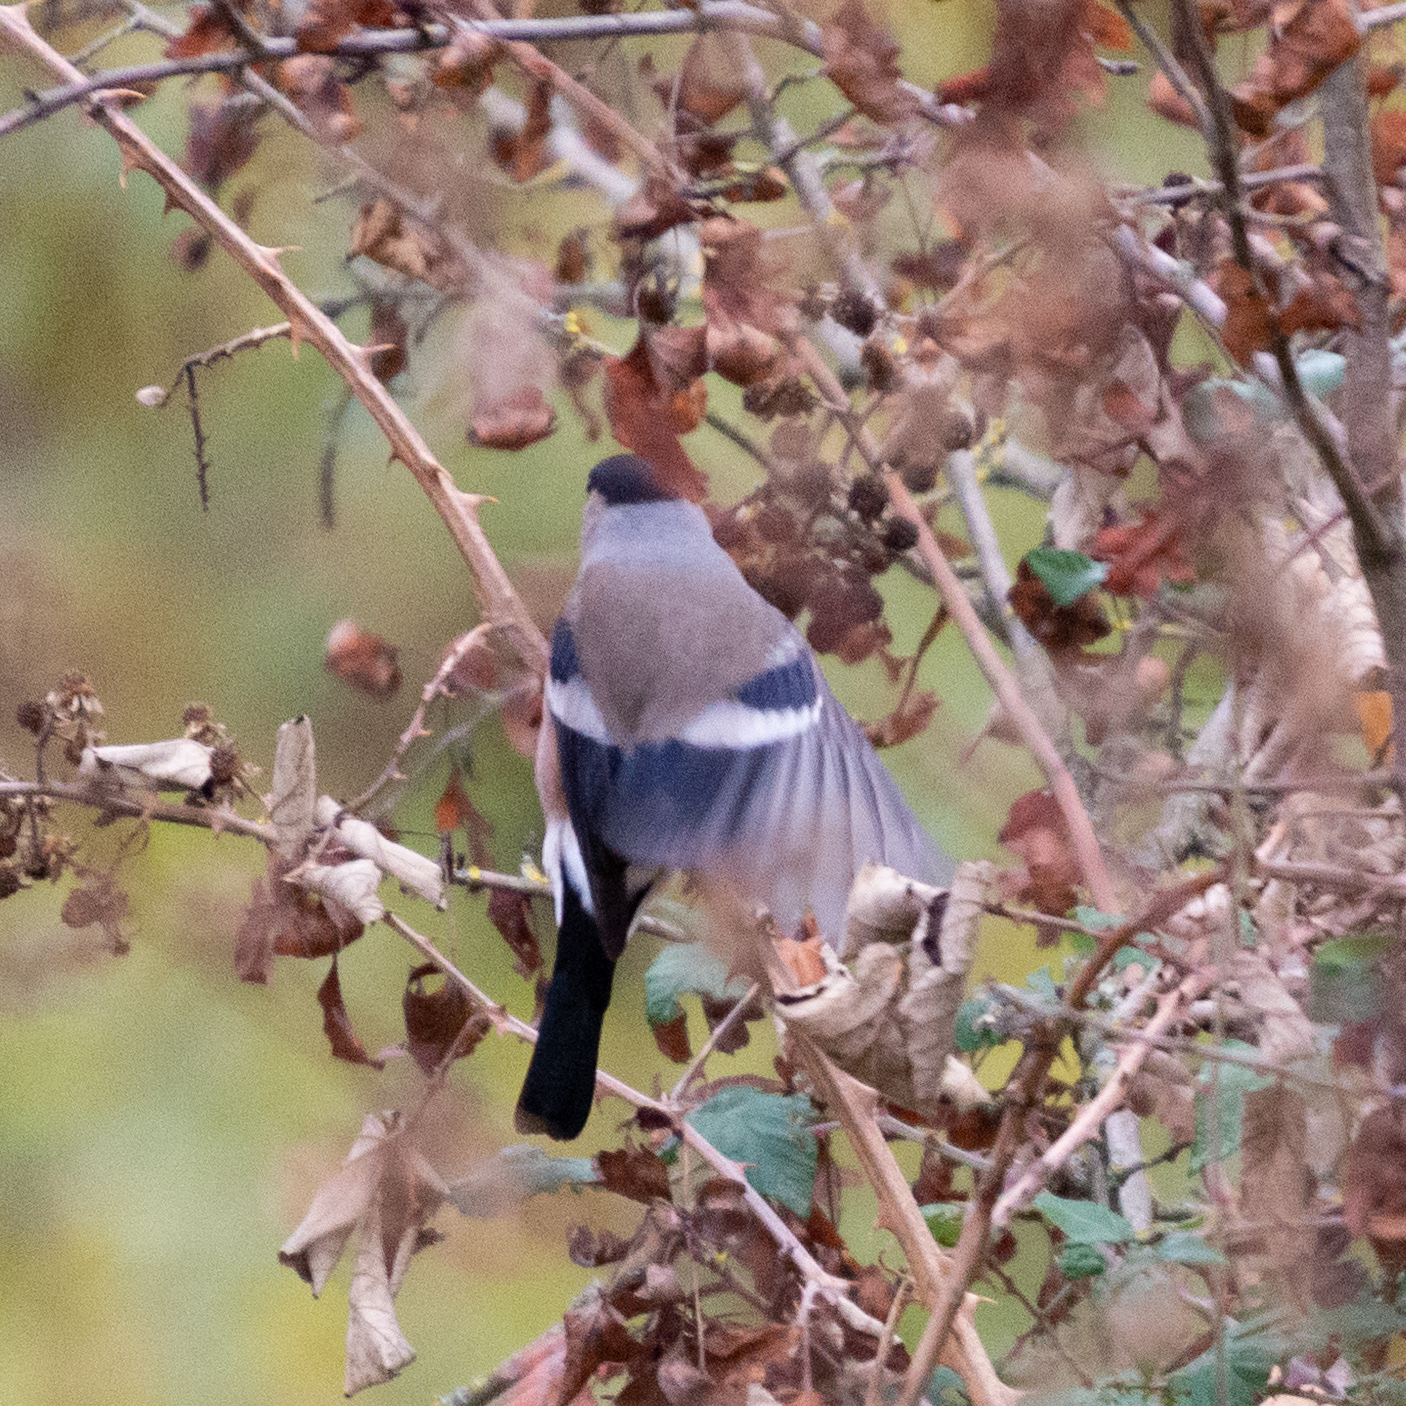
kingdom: Animalia
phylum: Chordata
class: Aves
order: Passeriformes
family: Fringillidae
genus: Pyrrhula
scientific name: Pyrrhula pyrrhula
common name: Eurasian bullfinch
